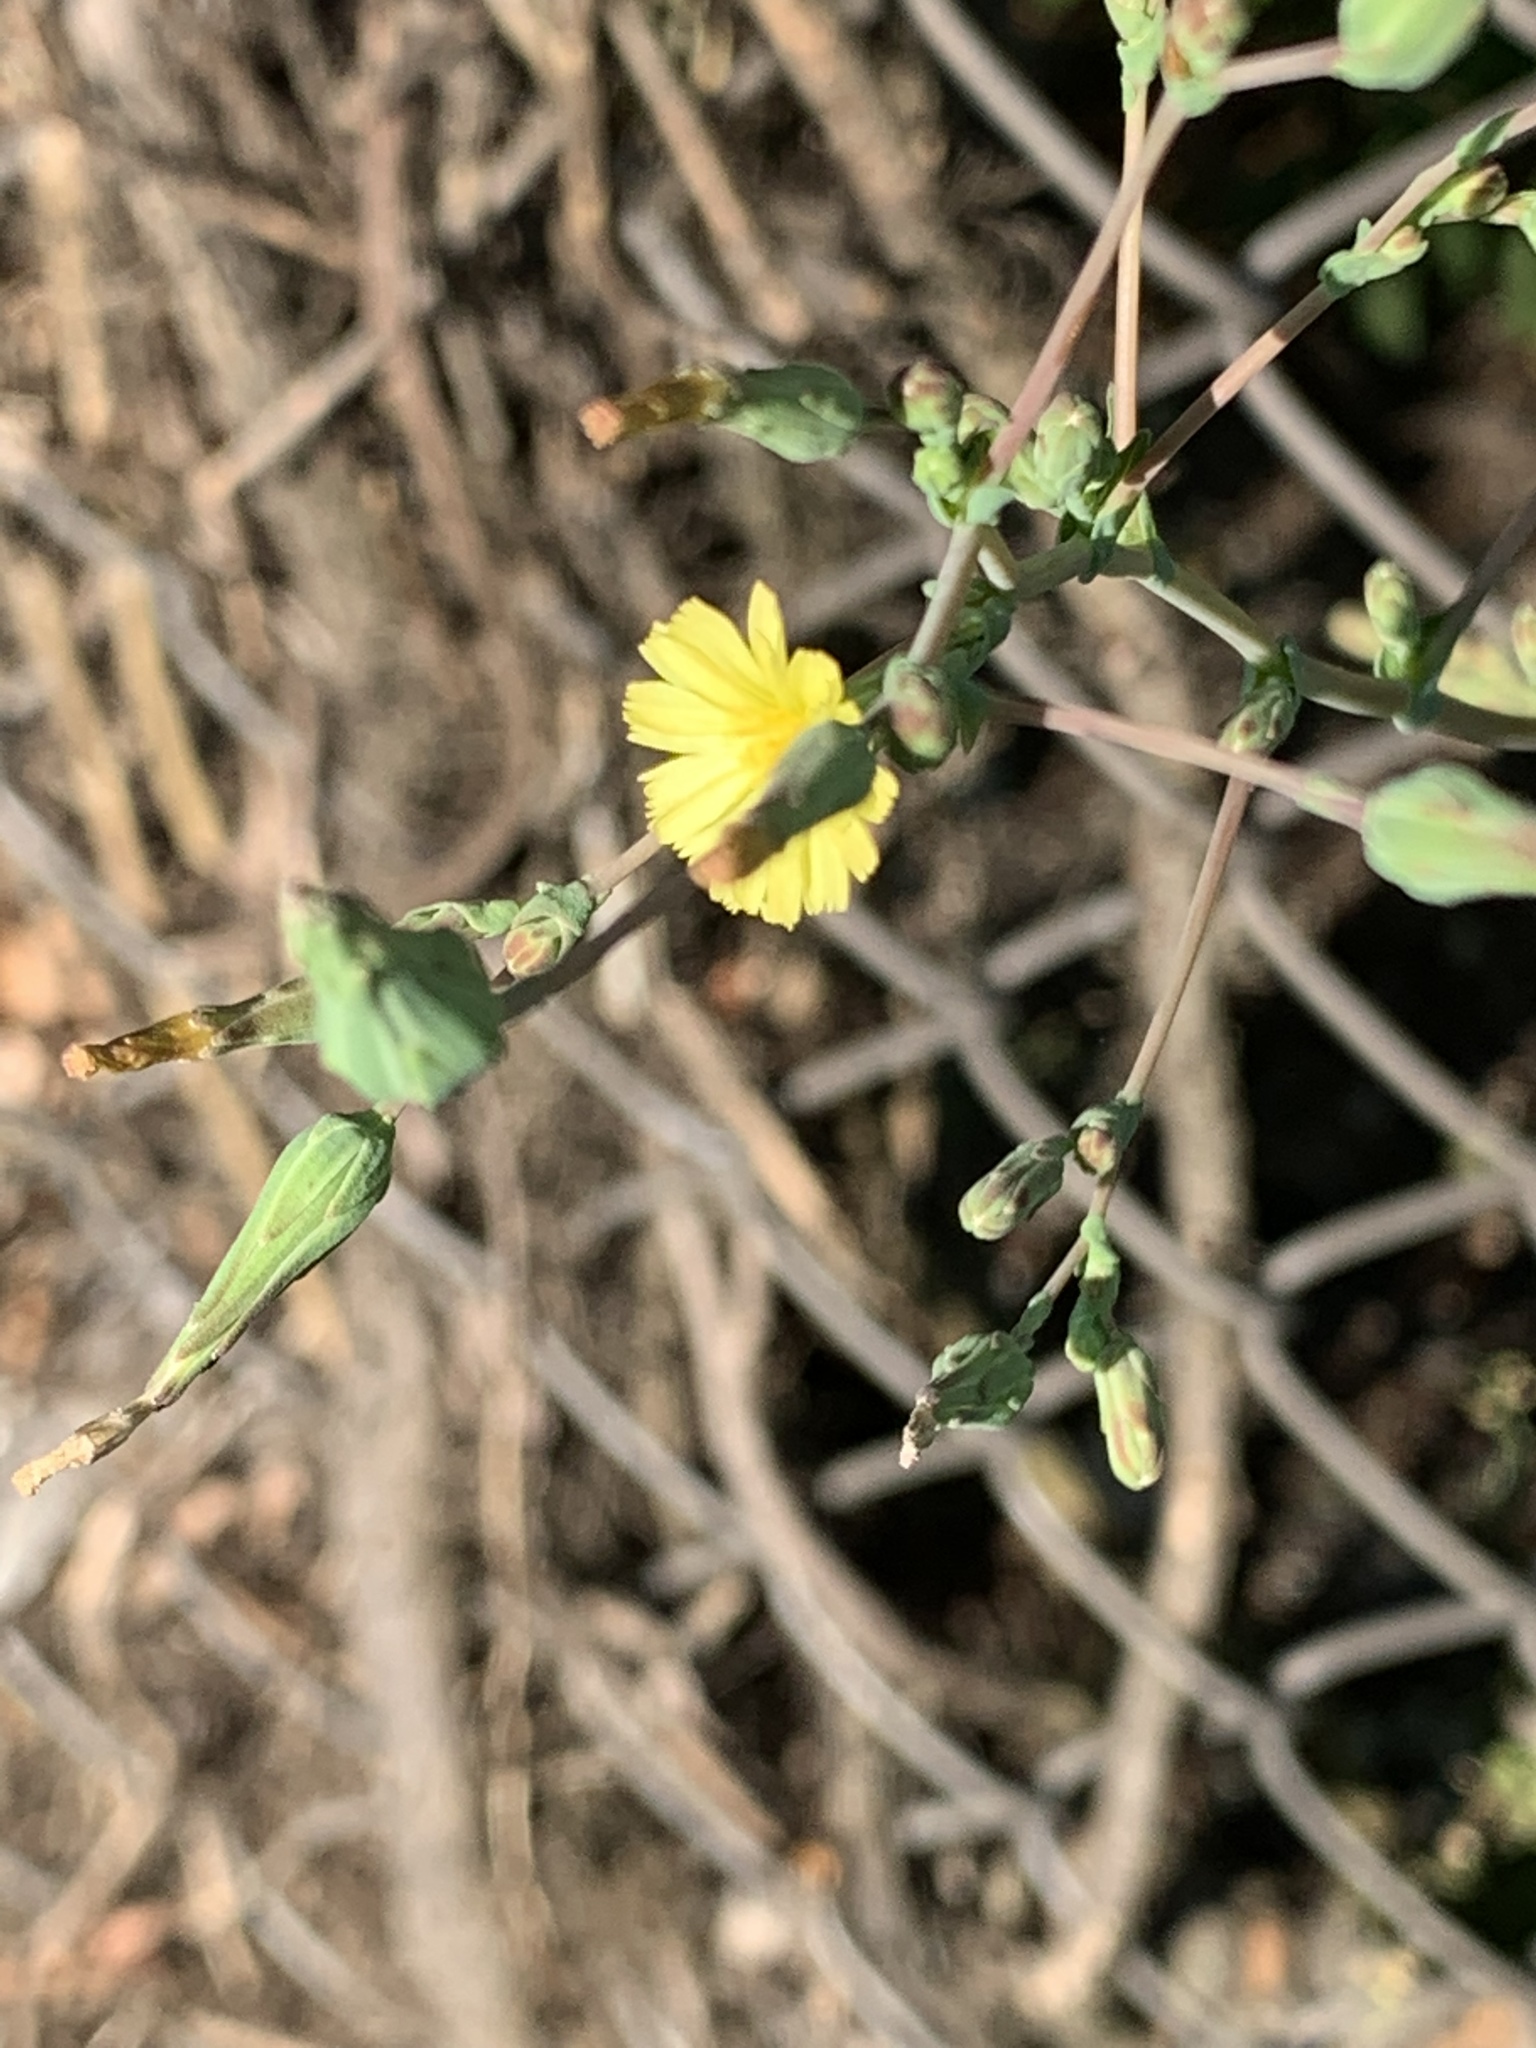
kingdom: Plantae
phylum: Tracheophyta
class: Magnoliopsida
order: Asterales
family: Asteraceae
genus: Lactuca
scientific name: Lactuca serriola
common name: Prickly lettuce
